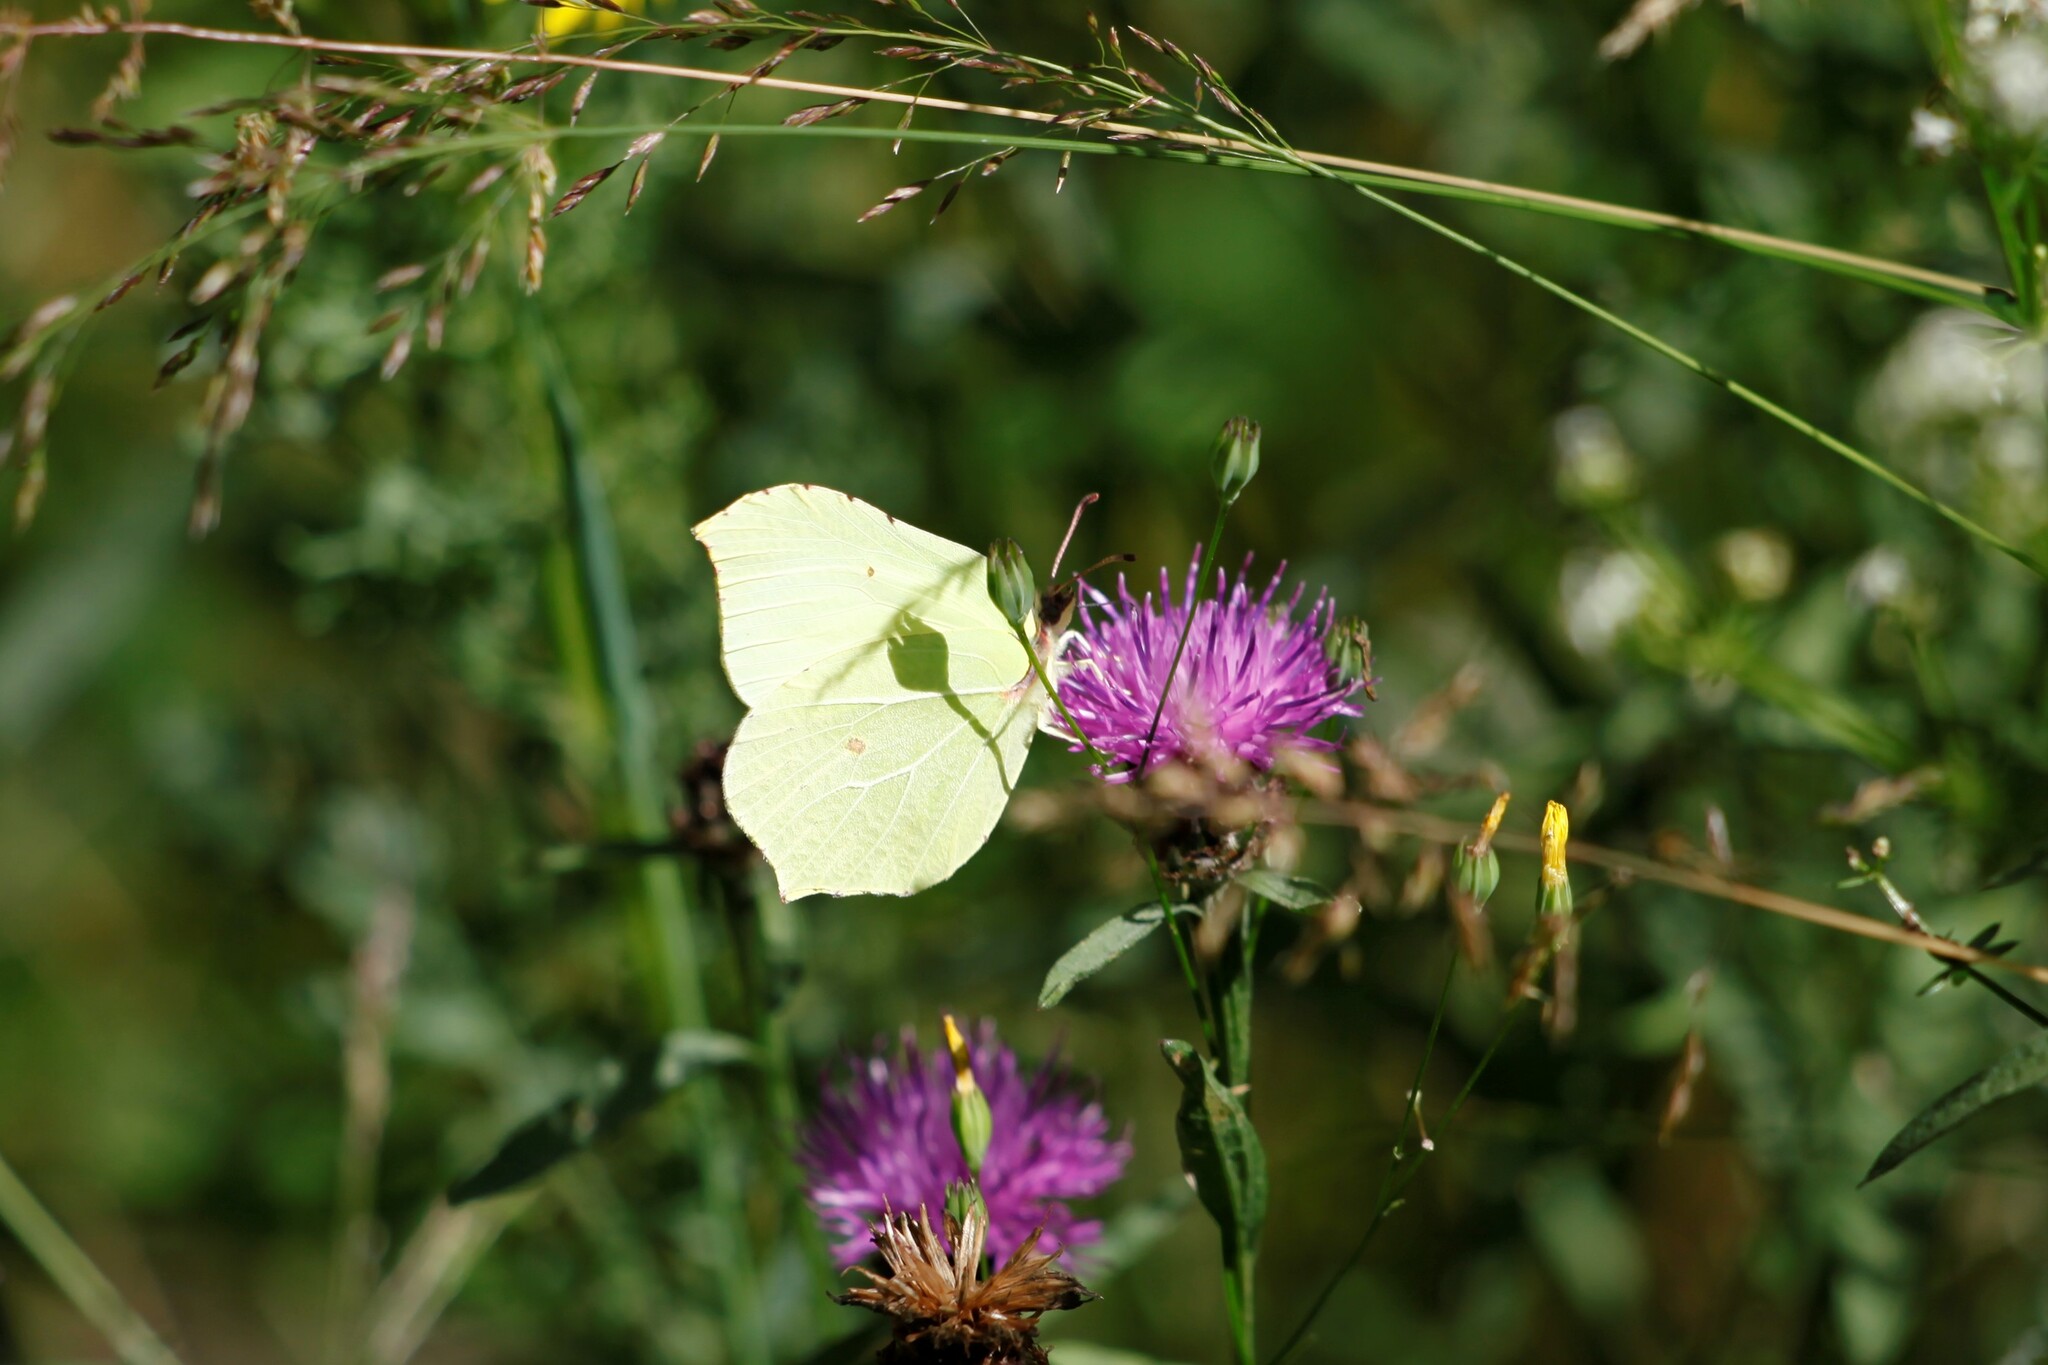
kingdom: Animalia
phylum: Arthropoda
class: Insecta
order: Lepidoptera
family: Pieridae
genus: Gonepteryx
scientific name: Gonepteryx rhamni
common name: Brimstone
